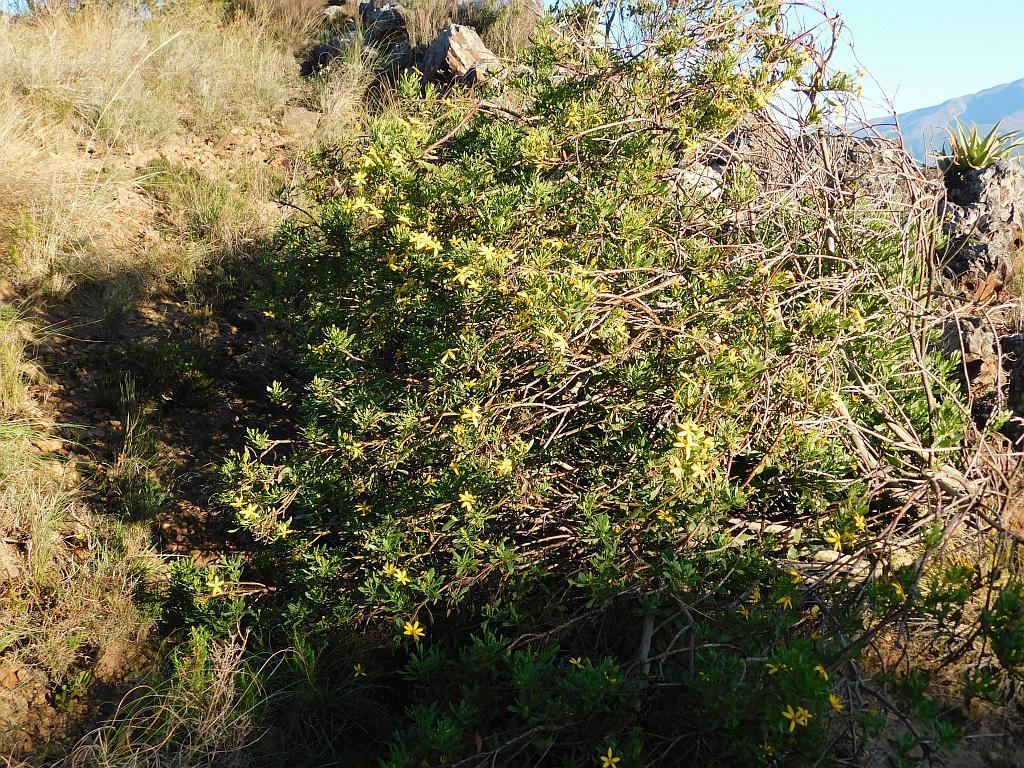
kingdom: Plantae
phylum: Tracheophyta
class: Magnoliopsida
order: Asterales
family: Asteraceae
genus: Osteospermum
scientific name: Osteospermum moniliferum
